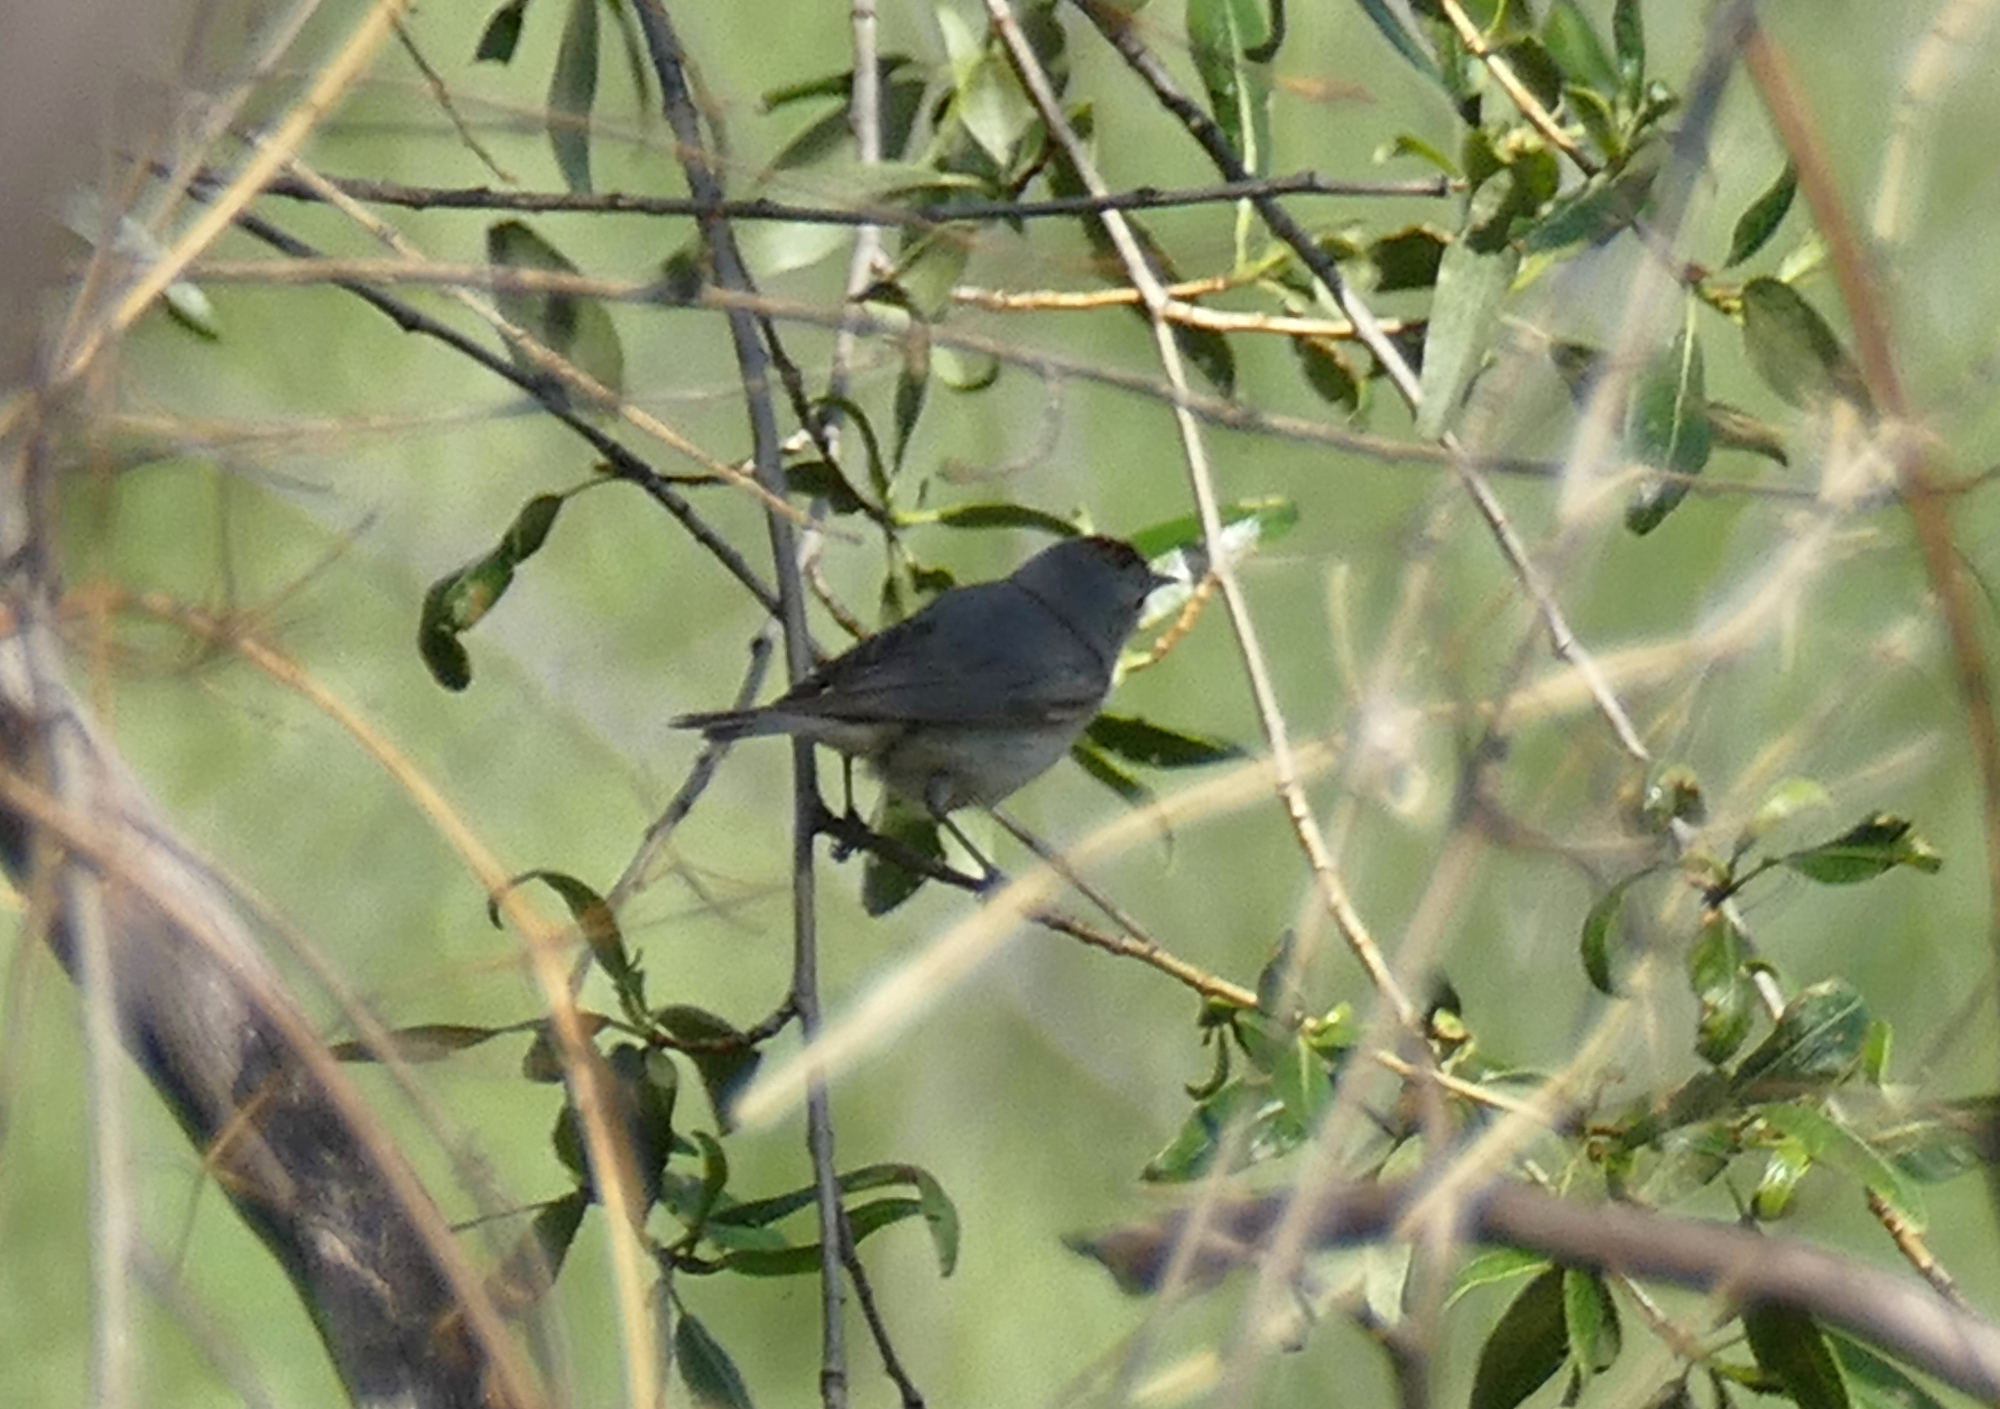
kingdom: Animalia
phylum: Chordata
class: Aves
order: Passeriformes
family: Parulidae
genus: Leiothlypis
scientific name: Leiothlypis luciae
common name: Lucy's warbler
